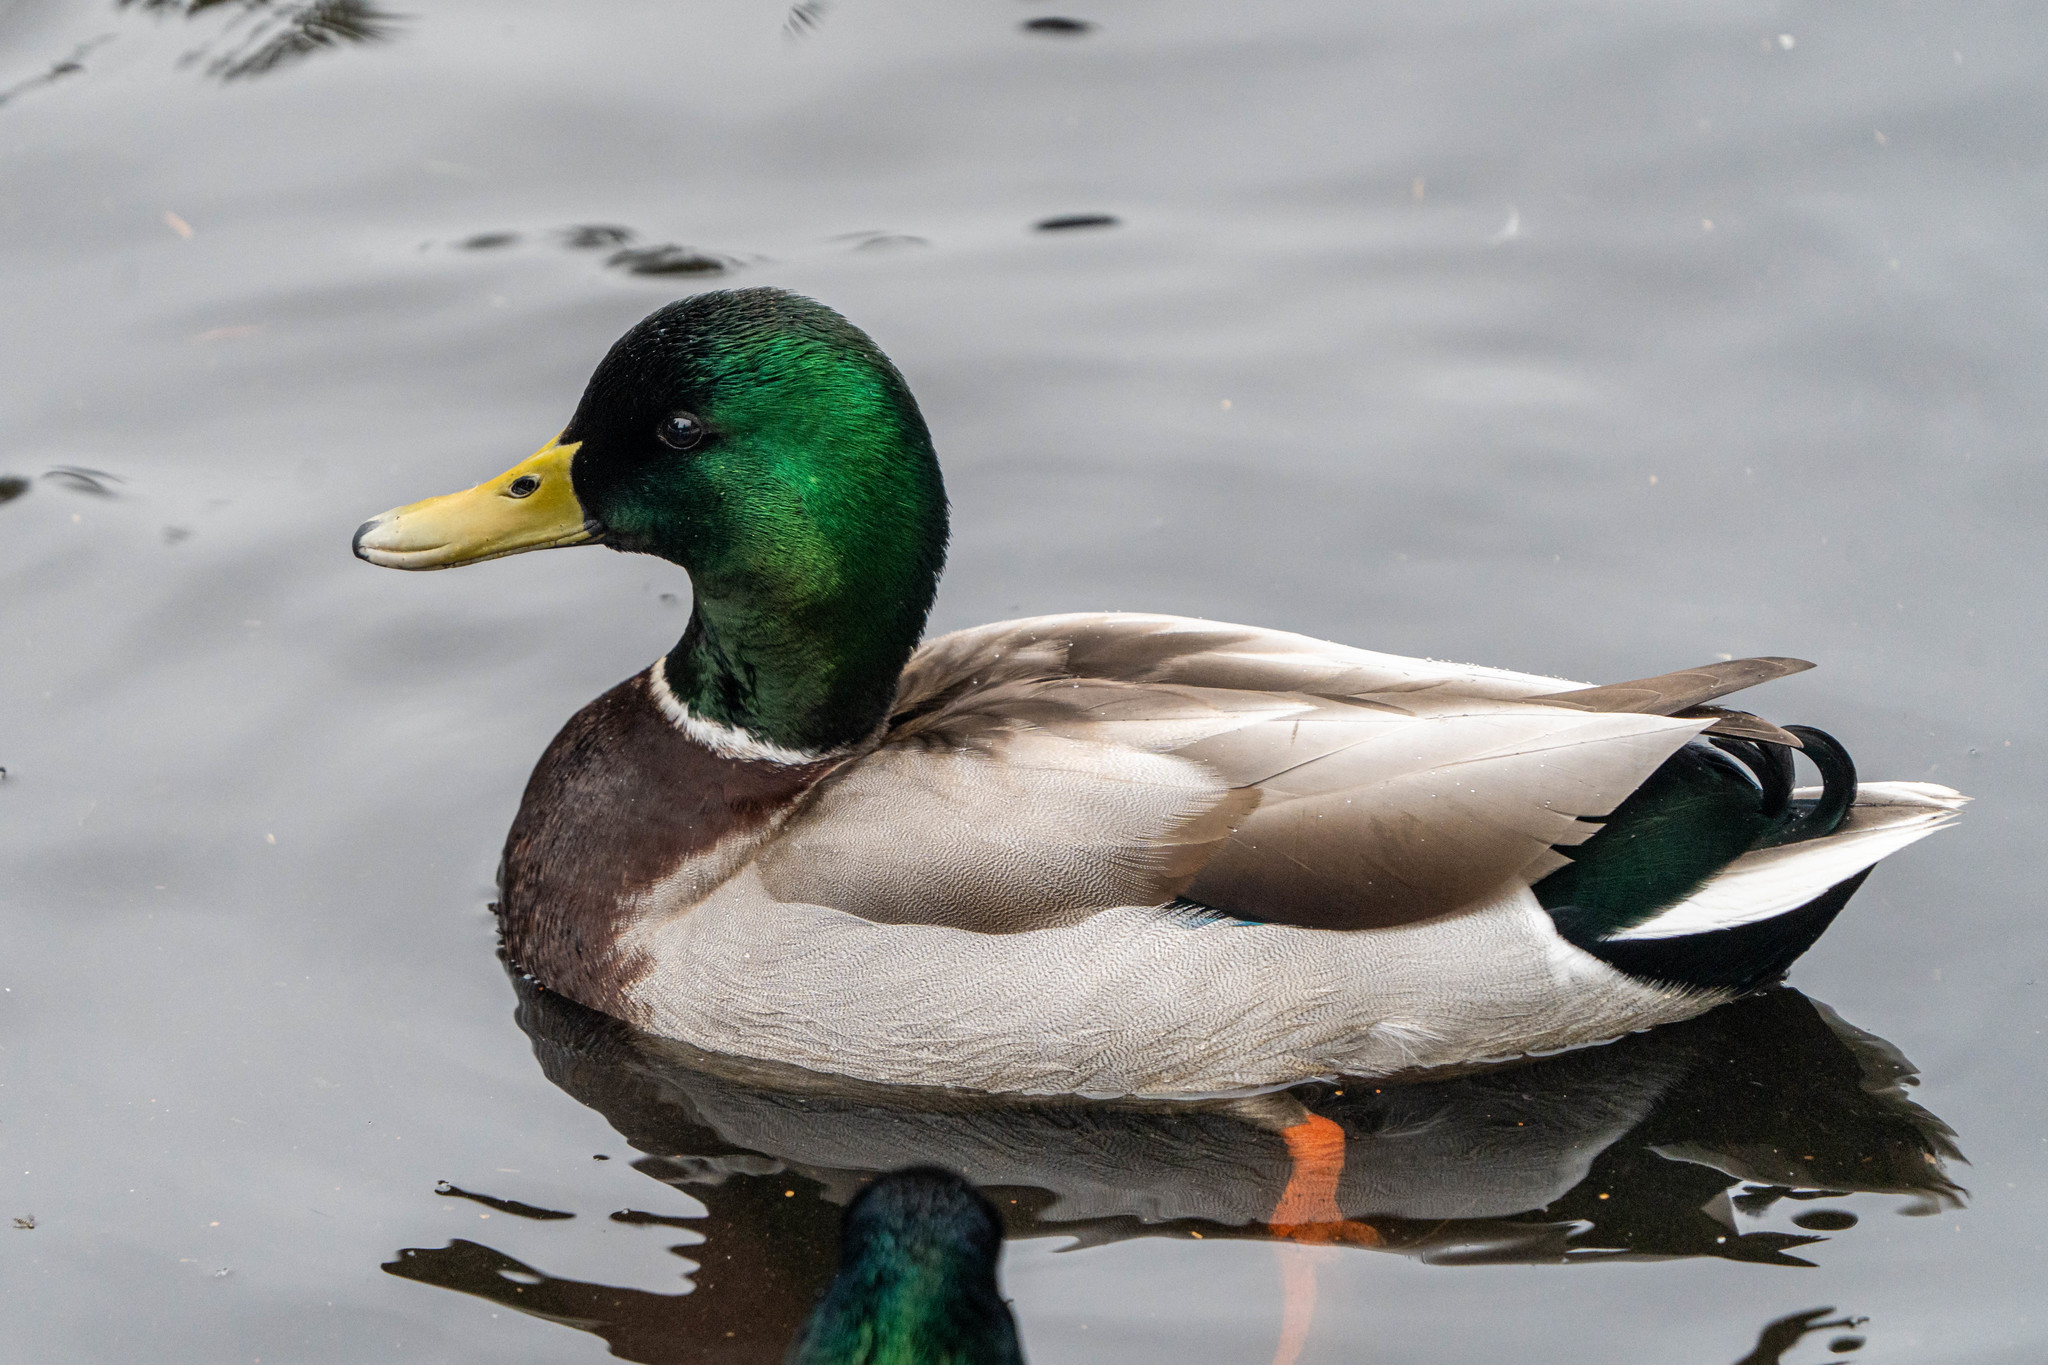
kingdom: Animalia
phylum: Chordata
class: Aves
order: Anseriformes
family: Anatidae
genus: Anas
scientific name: Anas platyrhynchos
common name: Mallard
